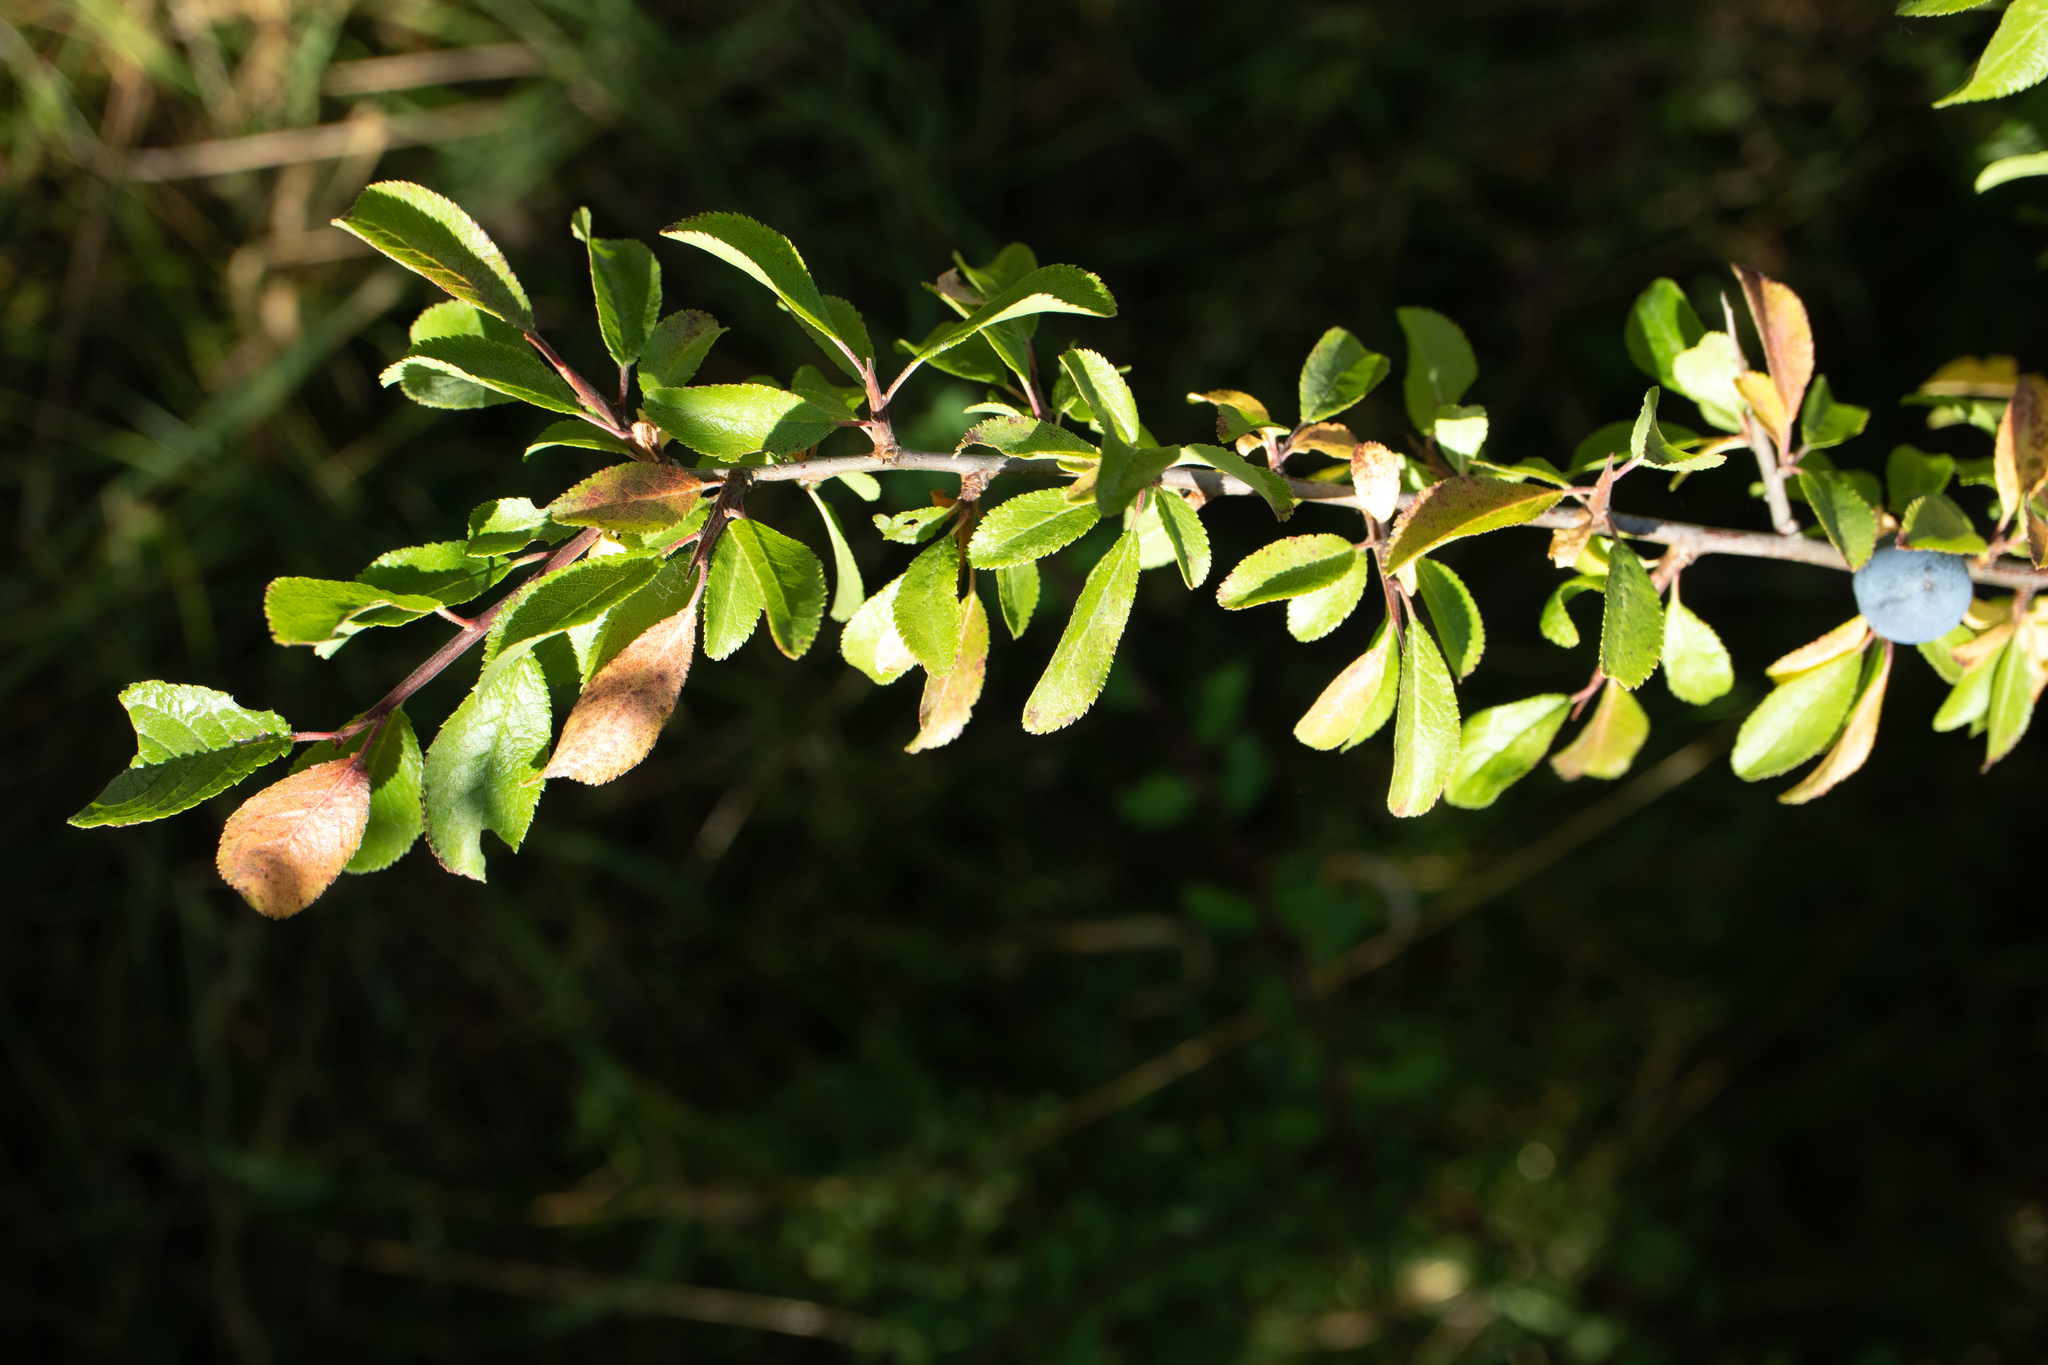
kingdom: Plantae
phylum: Tracheophyta
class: Magnoliopsida
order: Rosales
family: Rosaceae
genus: Prunus
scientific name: Prunus spinosa
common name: Blackthorn
